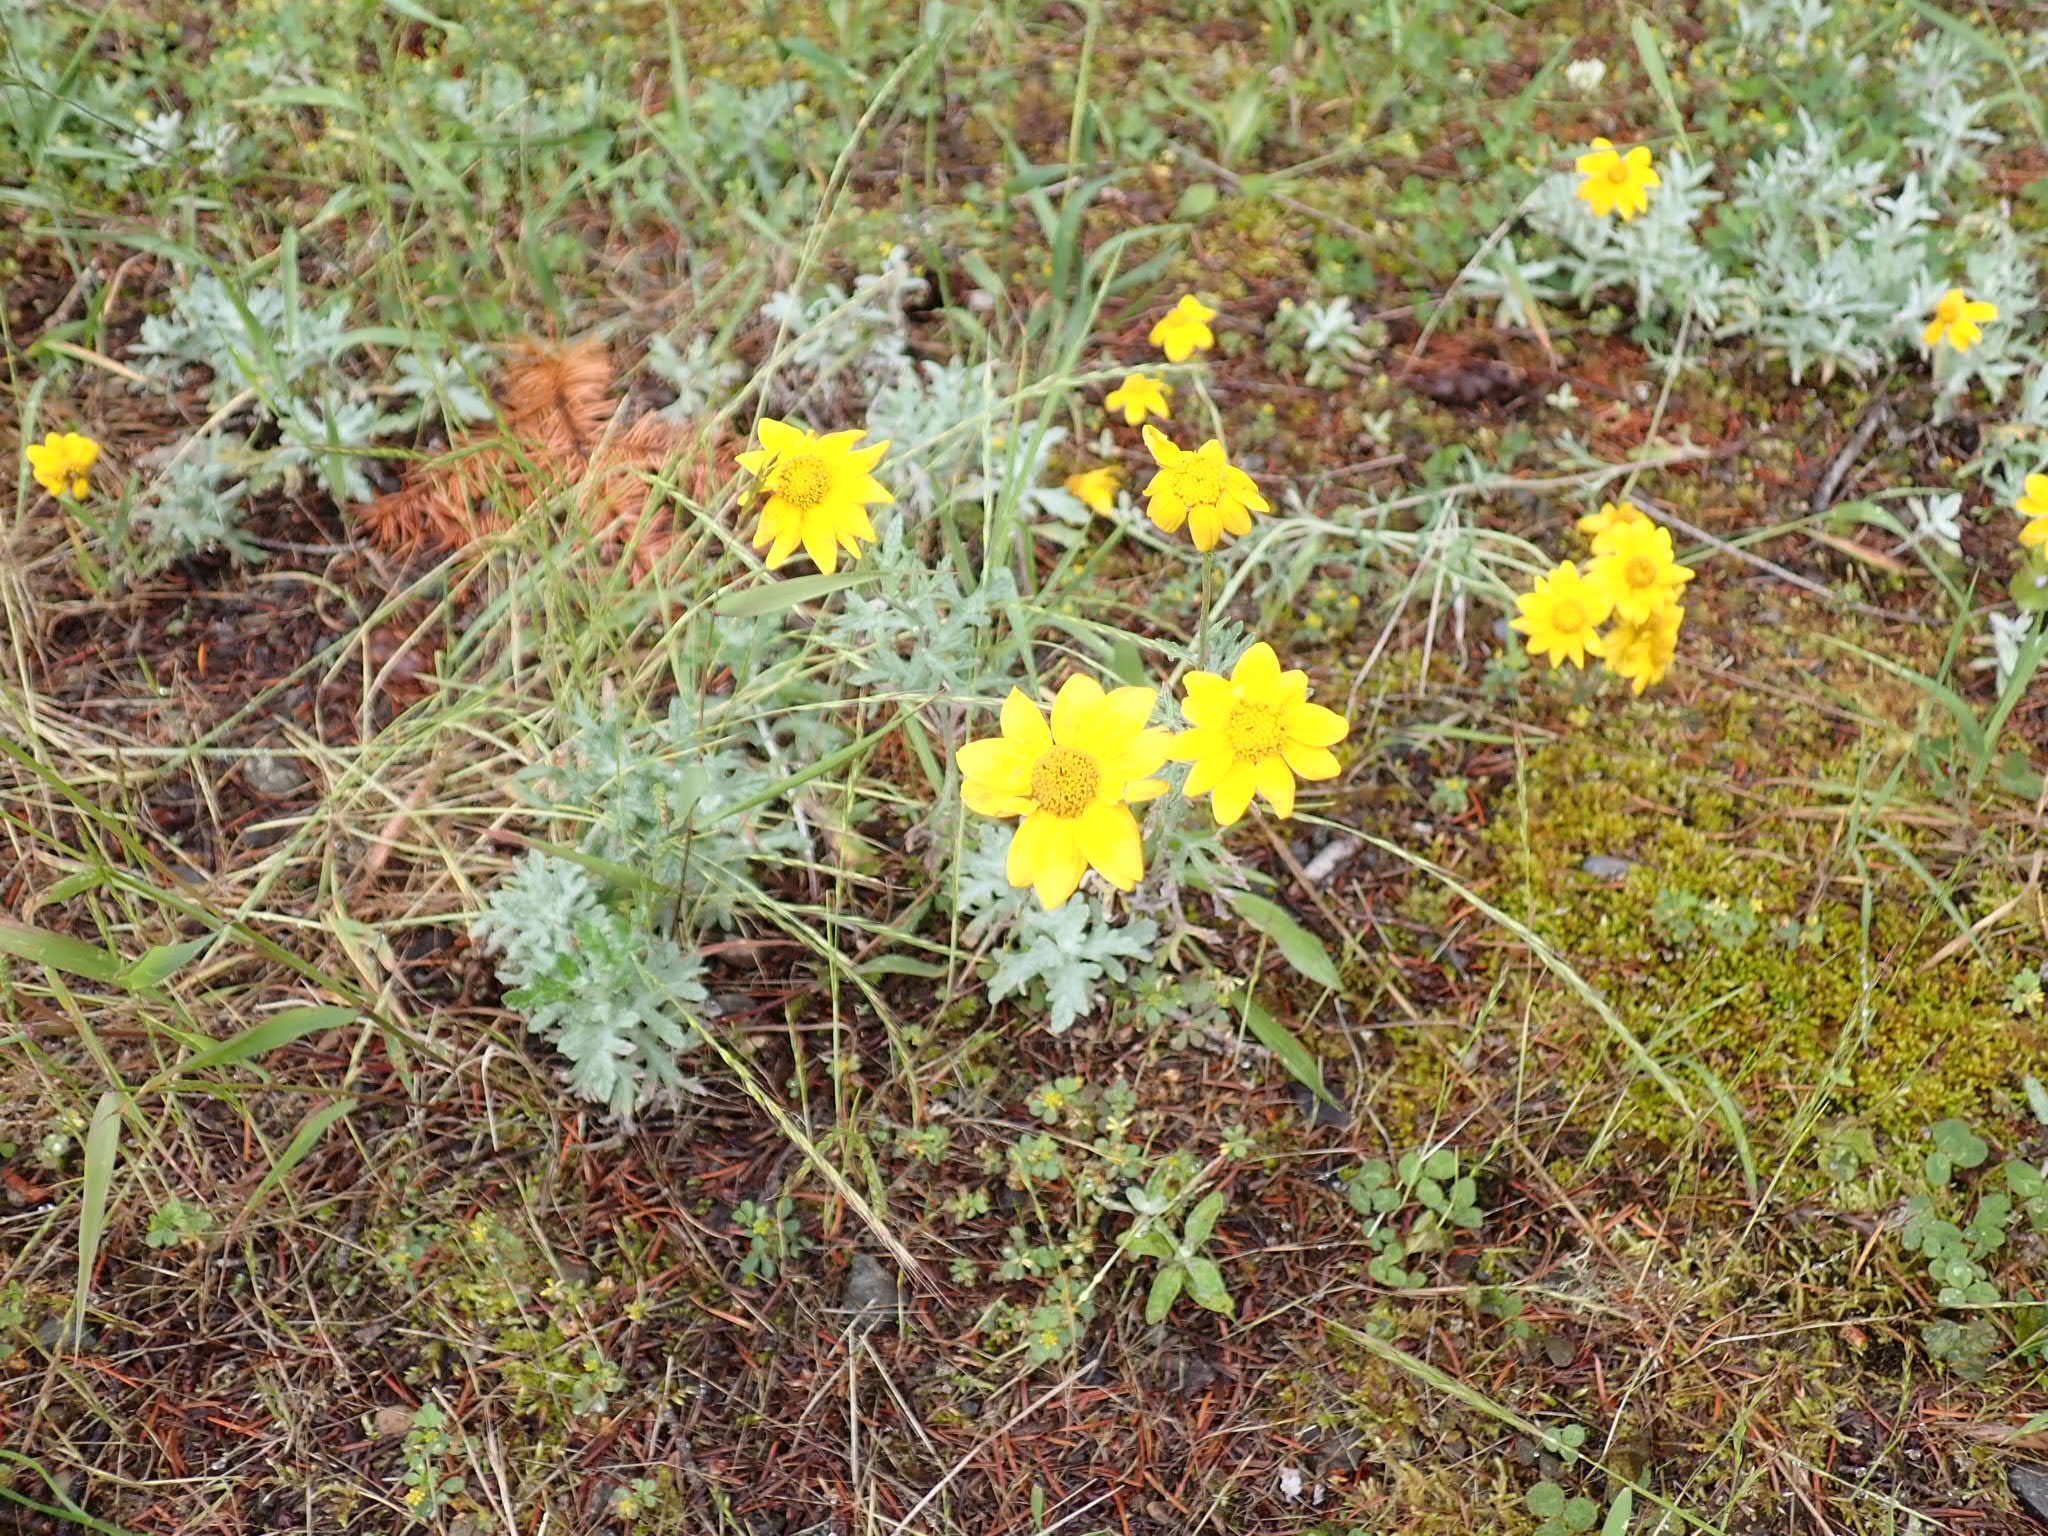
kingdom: Plantae
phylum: Tracheophyta
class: Magnoliopsida
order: Asterales
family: Asteraceae
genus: Eriophyllum
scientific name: Eriophyllum lanatum
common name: Common woolly-sunflower
